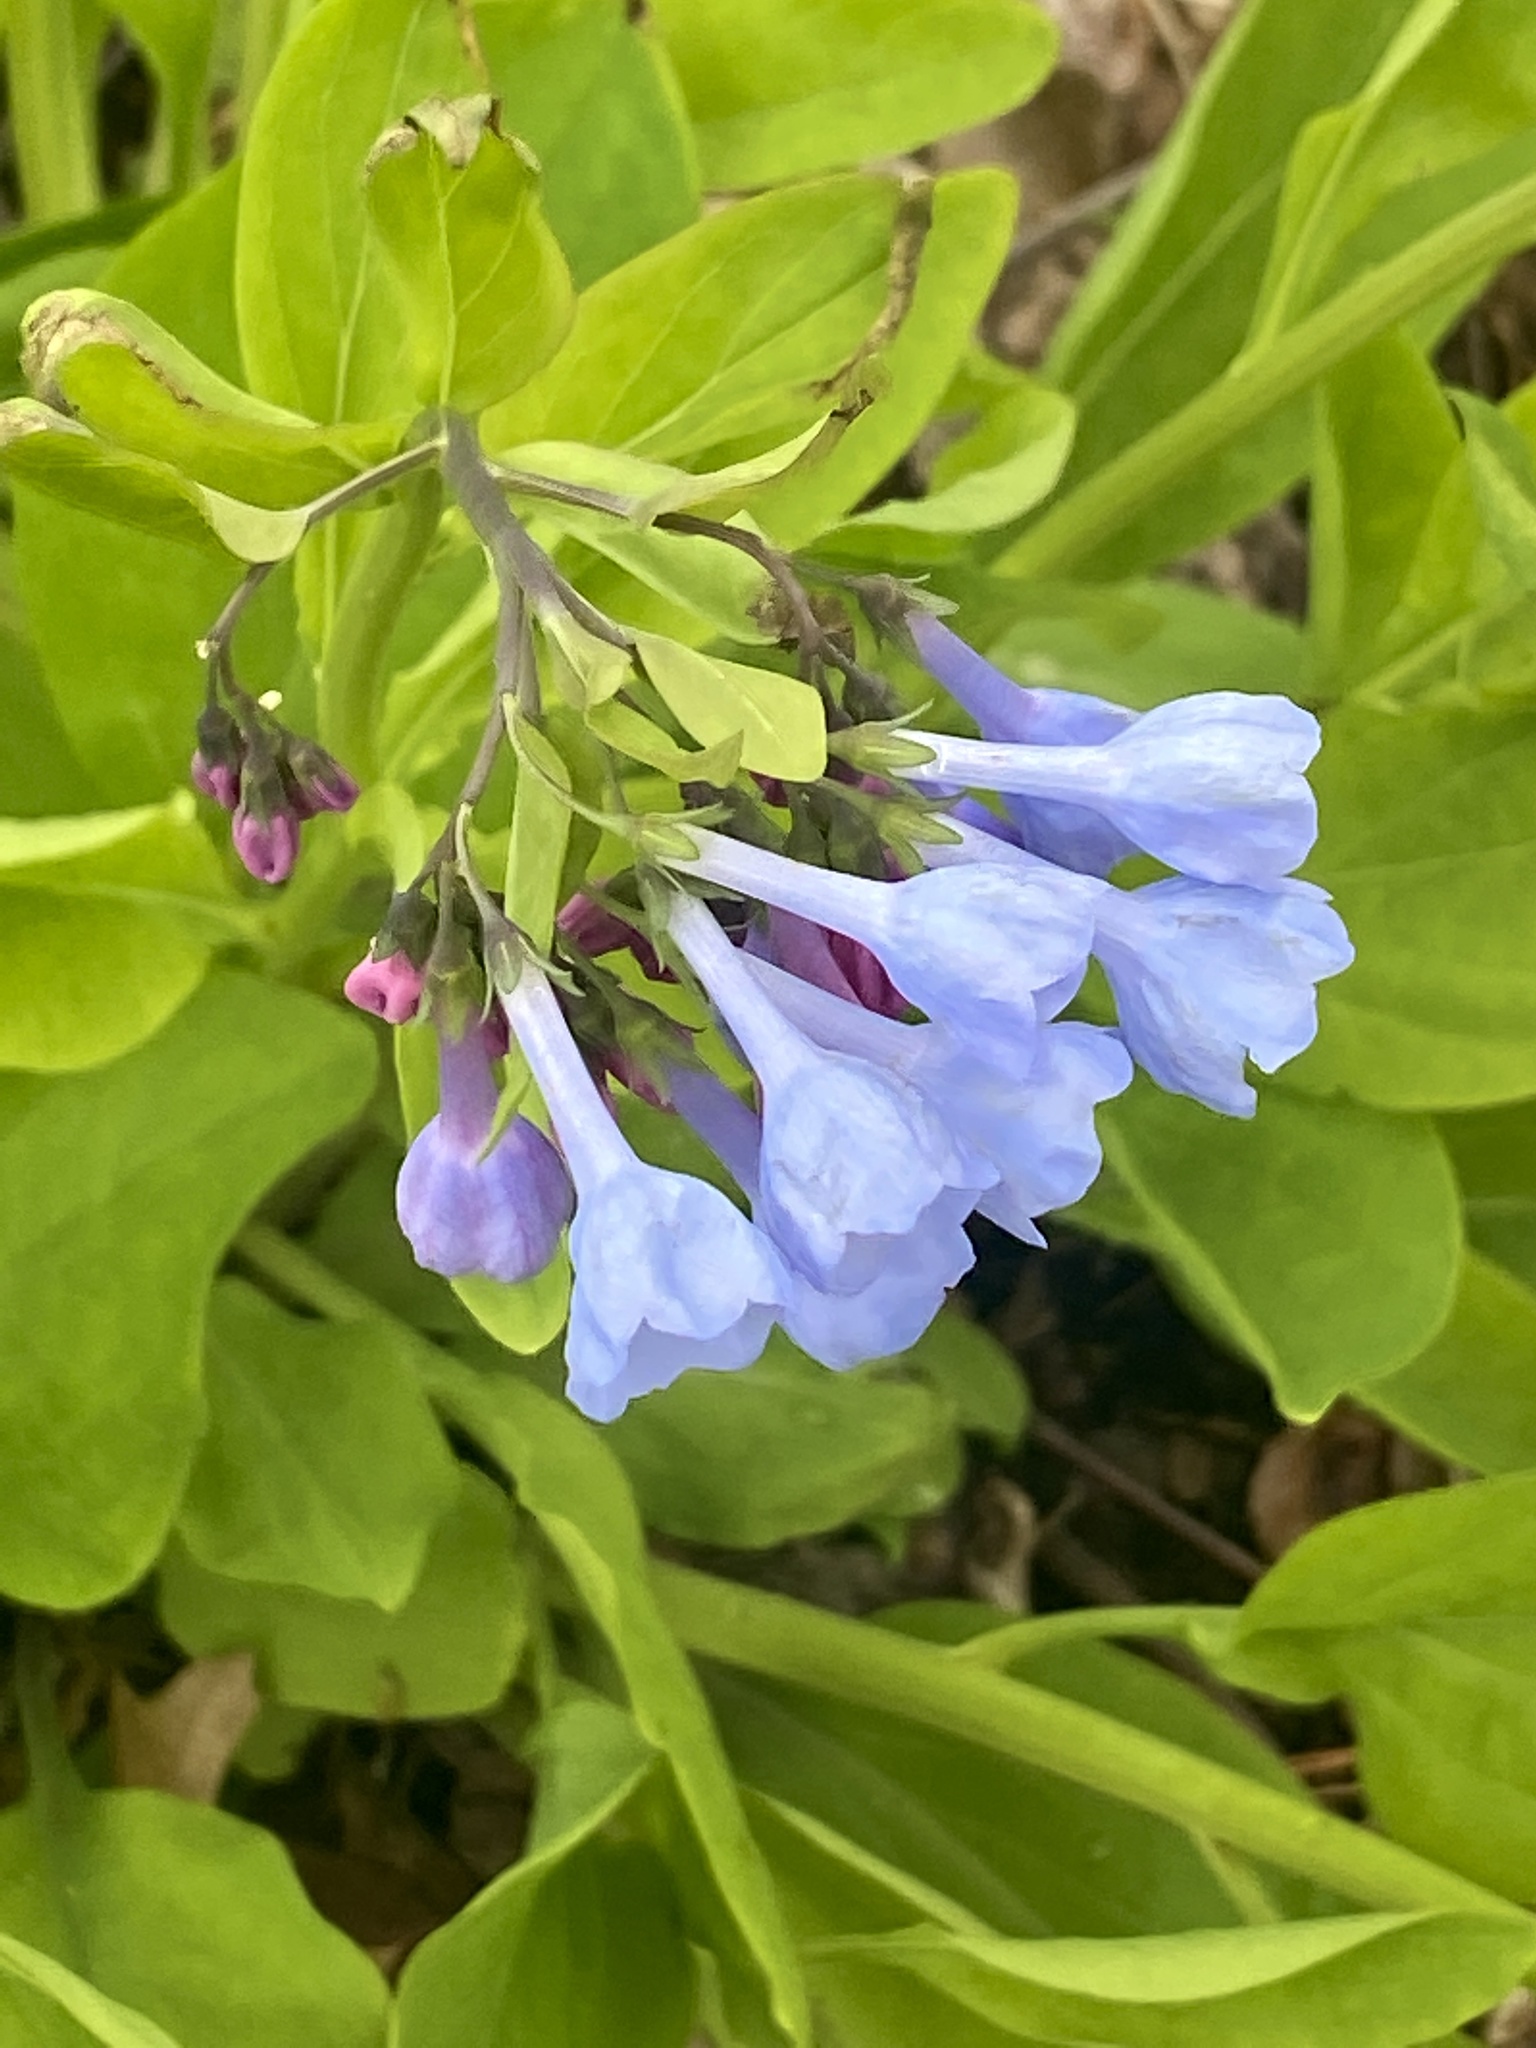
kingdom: Plantae
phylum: Tracheophyta
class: Magnoliopsida
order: Boraginales
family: Boraginaceae
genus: Mertensia
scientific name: Mertensia virginica
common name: Virginia bluebells
